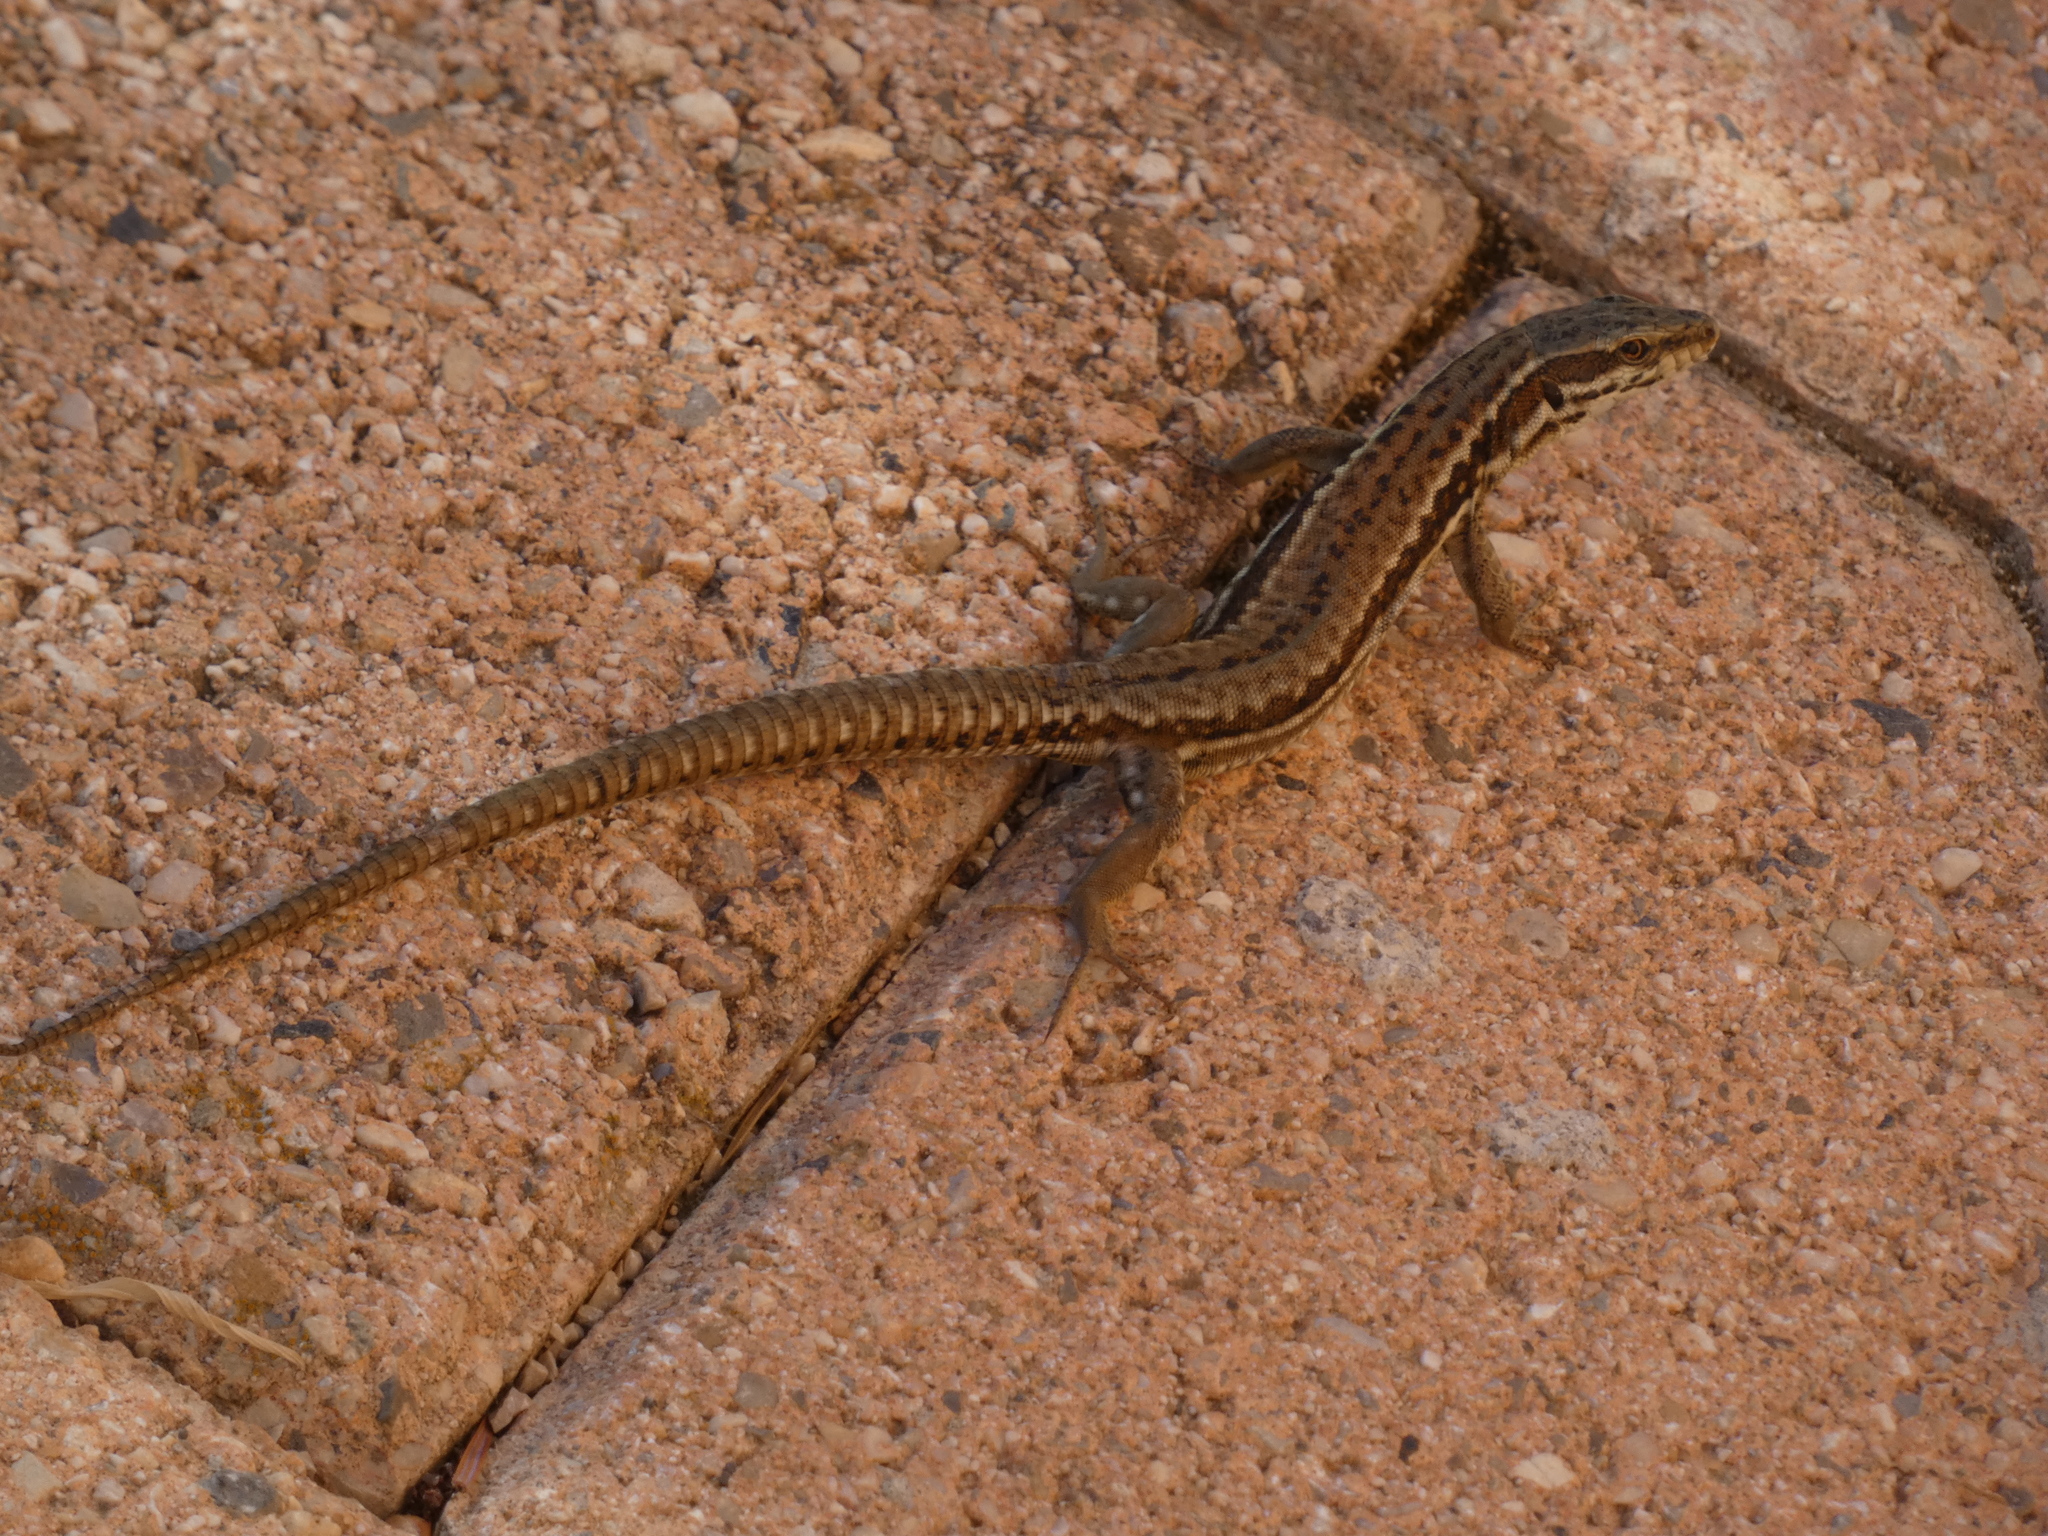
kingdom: Animalia
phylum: Chordata
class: Squamata
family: Lacertidae
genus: Podarcis
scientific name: Podarcis muralis
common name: Common wall lizard
